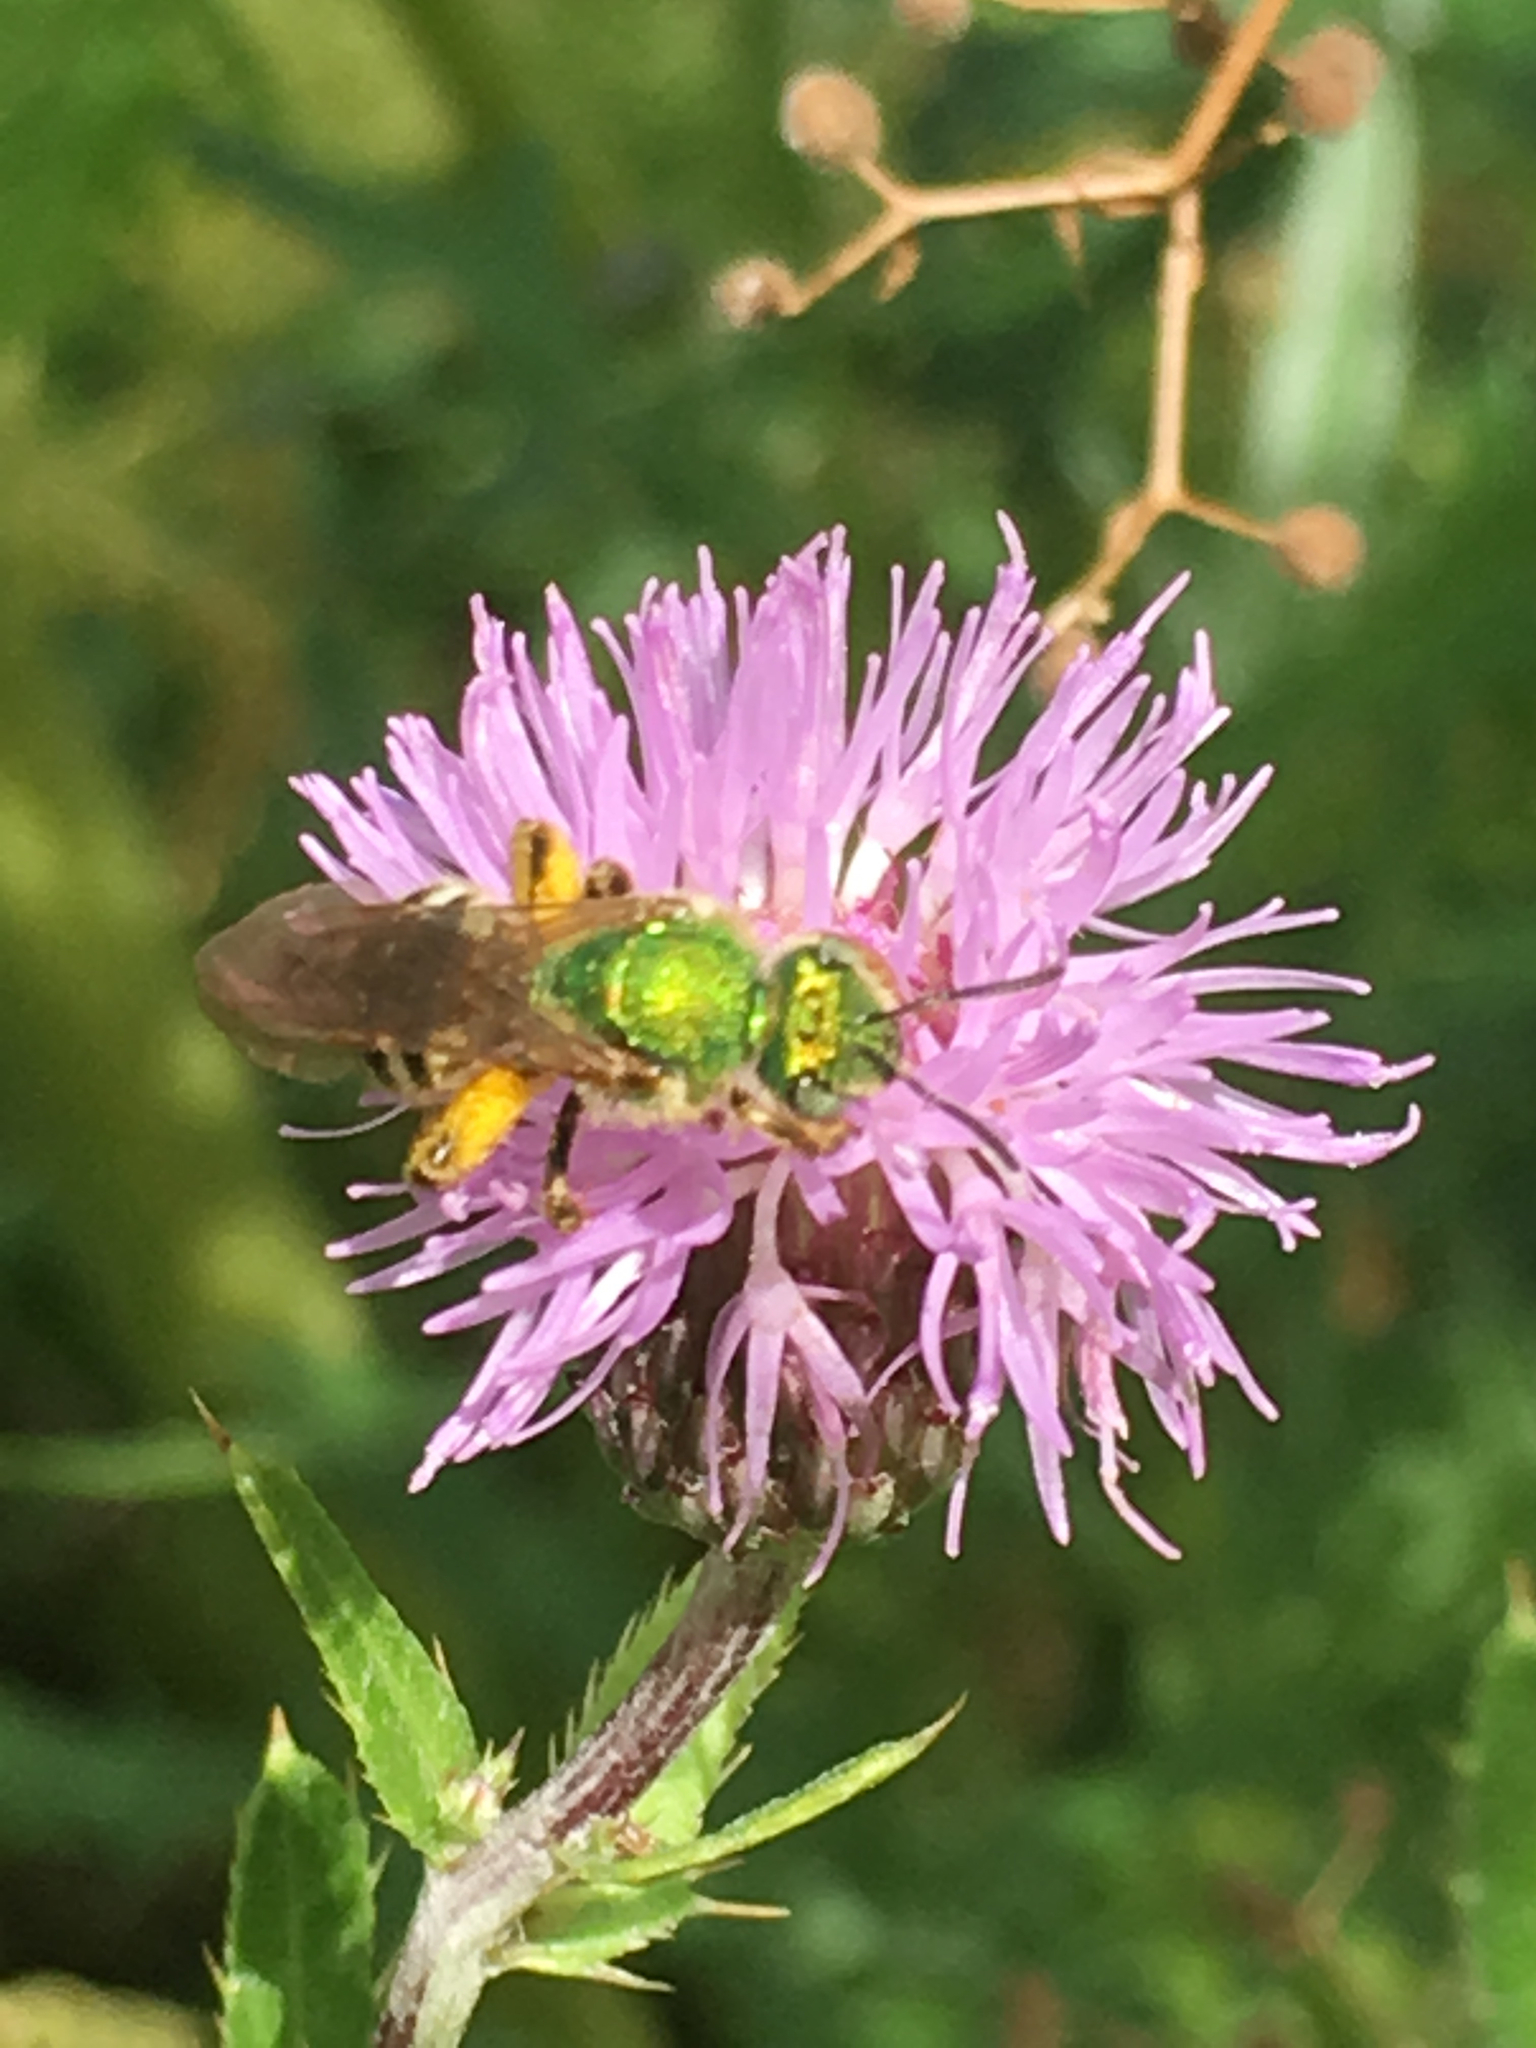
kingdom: Animalia
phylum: Arthropoda
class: Insecta
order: Hymenoptera
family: Halictidae
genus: Agapostemon
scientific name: Agapostemon virescens
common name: Bicolored striped sweat bee
